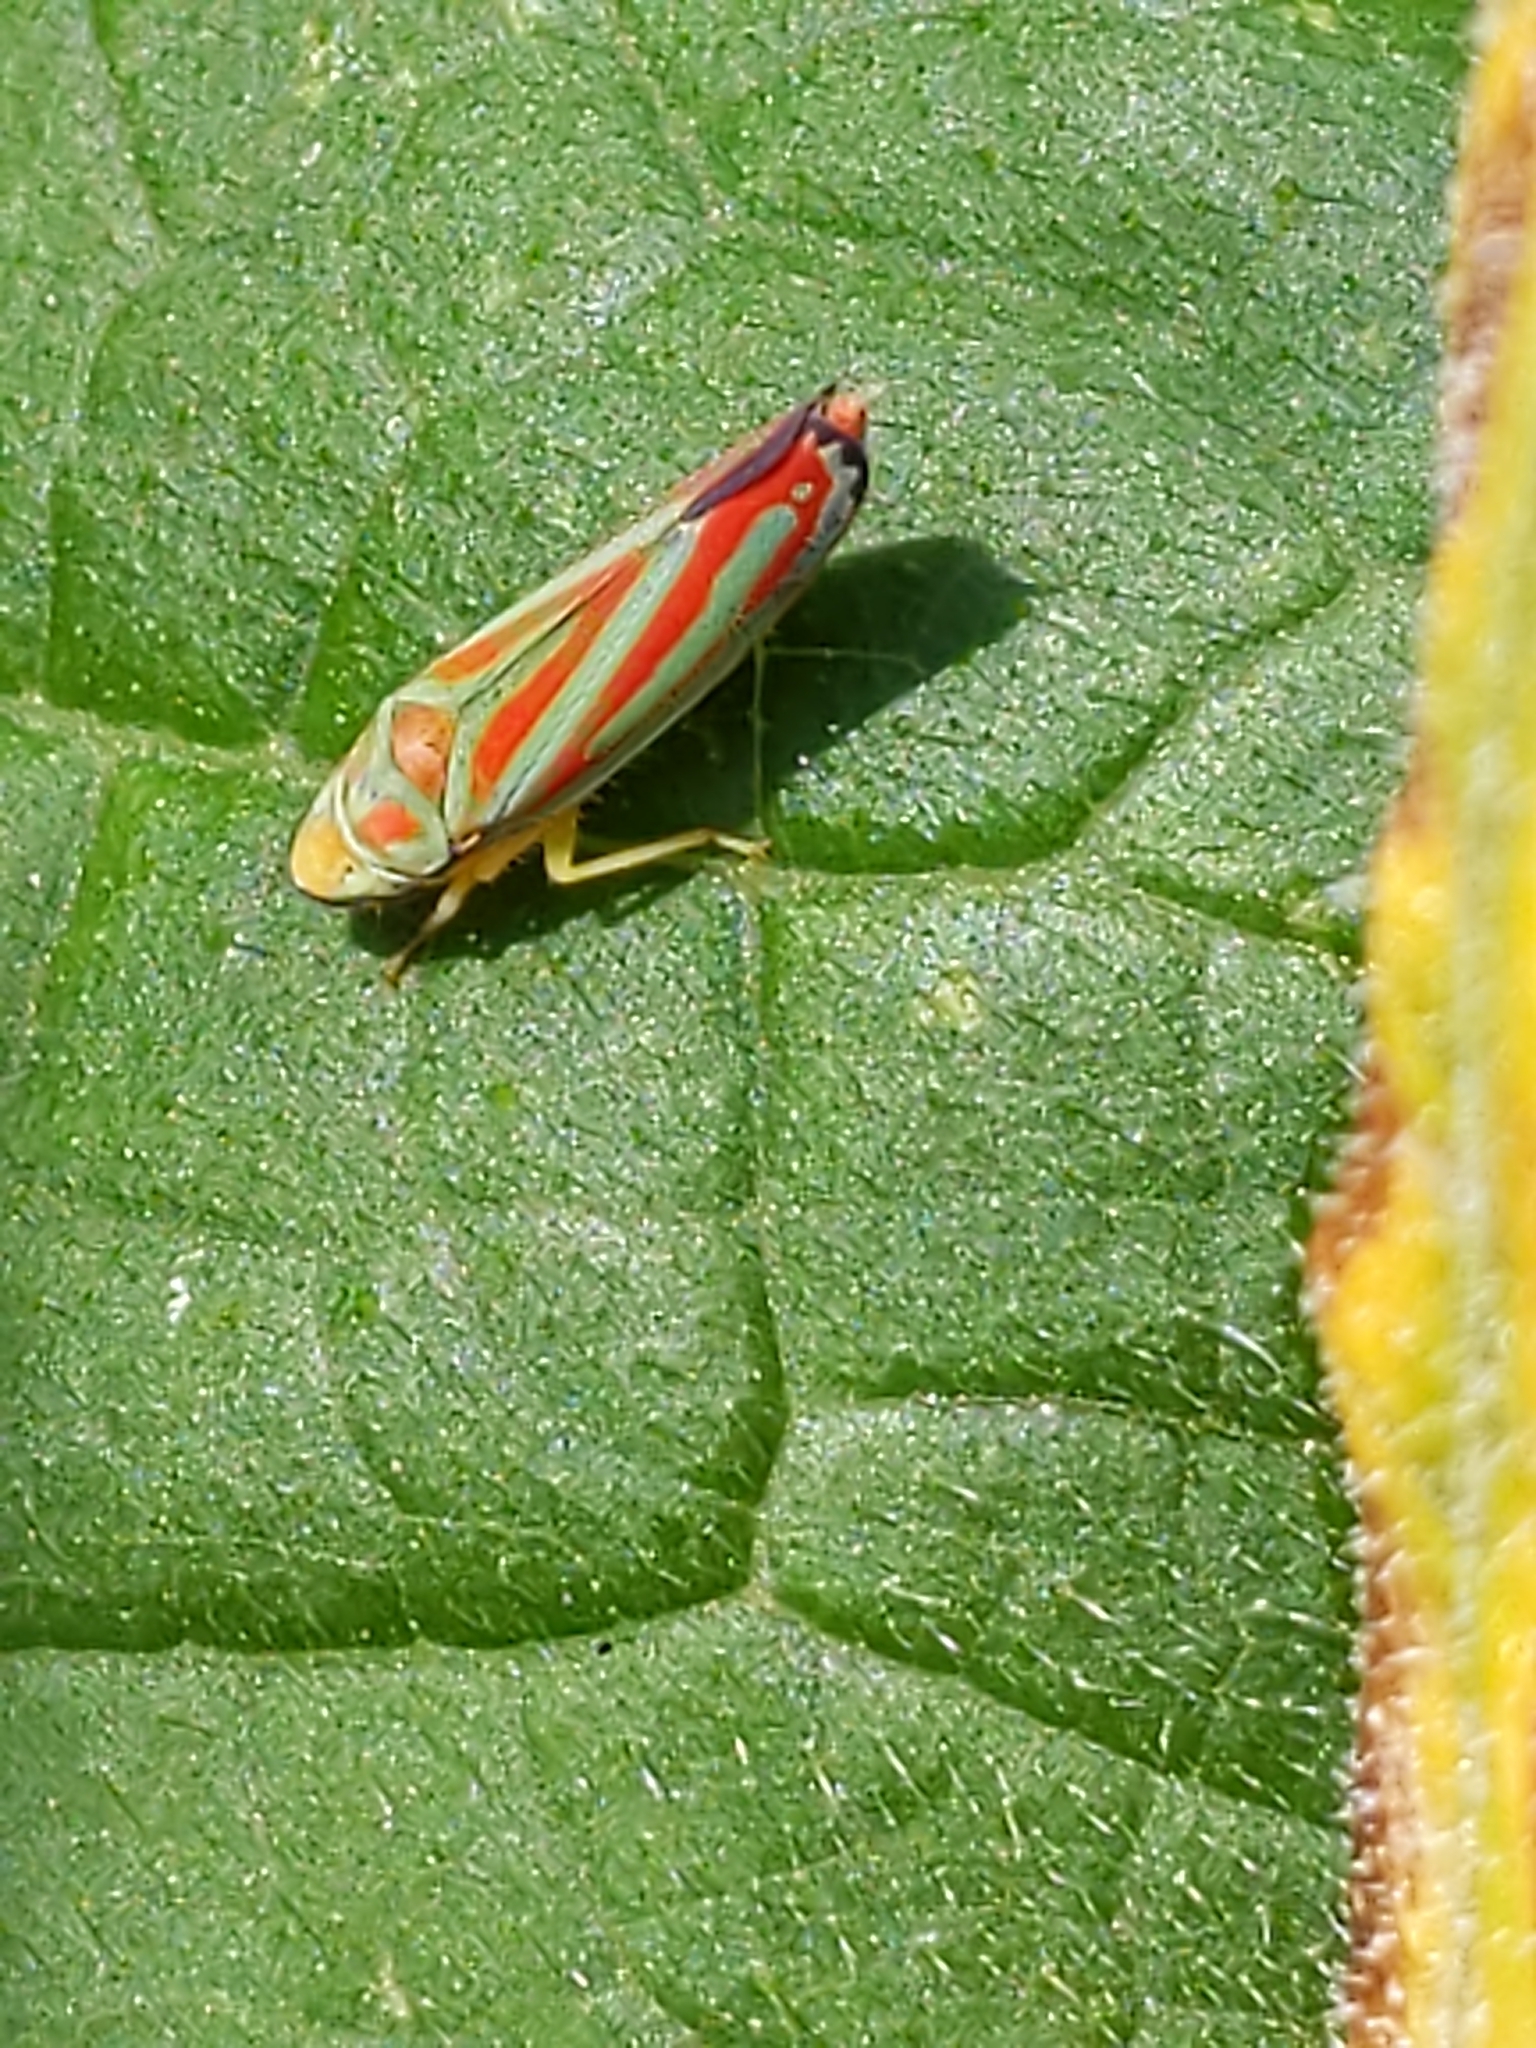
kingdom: Animalia
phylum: Arthropoda
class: Insecta
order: Hemiptera
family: Cicadellidae
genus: Graphocephala
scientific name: Graphocephala coccinea
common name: Candy-striped leafhopper
